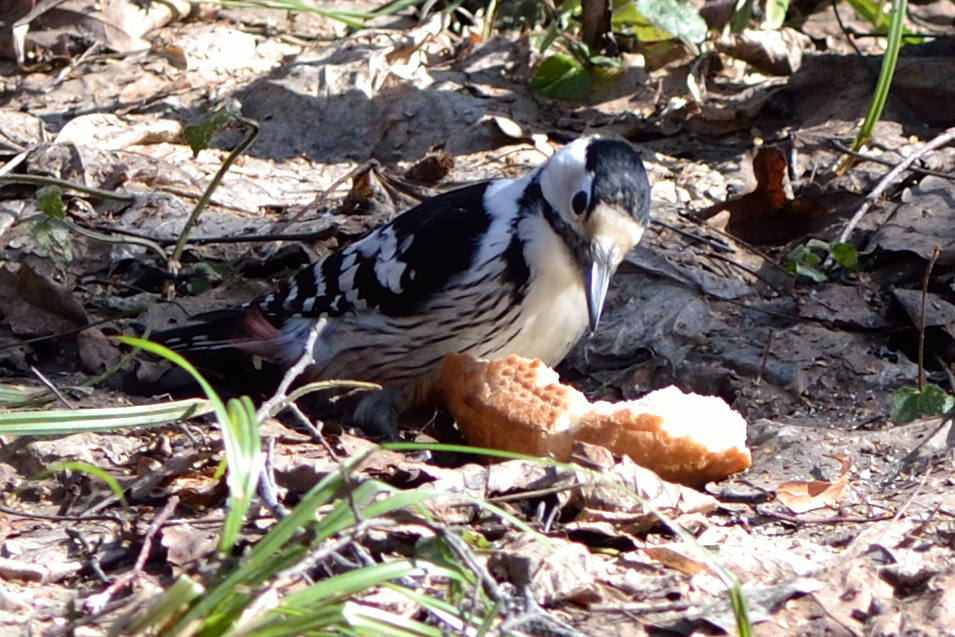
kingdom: Animalia
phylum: Chordata
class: Aves
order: Piciformes
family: Picidae
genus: Dendrocopos
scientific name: Dendrocopos leucotos
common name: White-backed woodpecker
